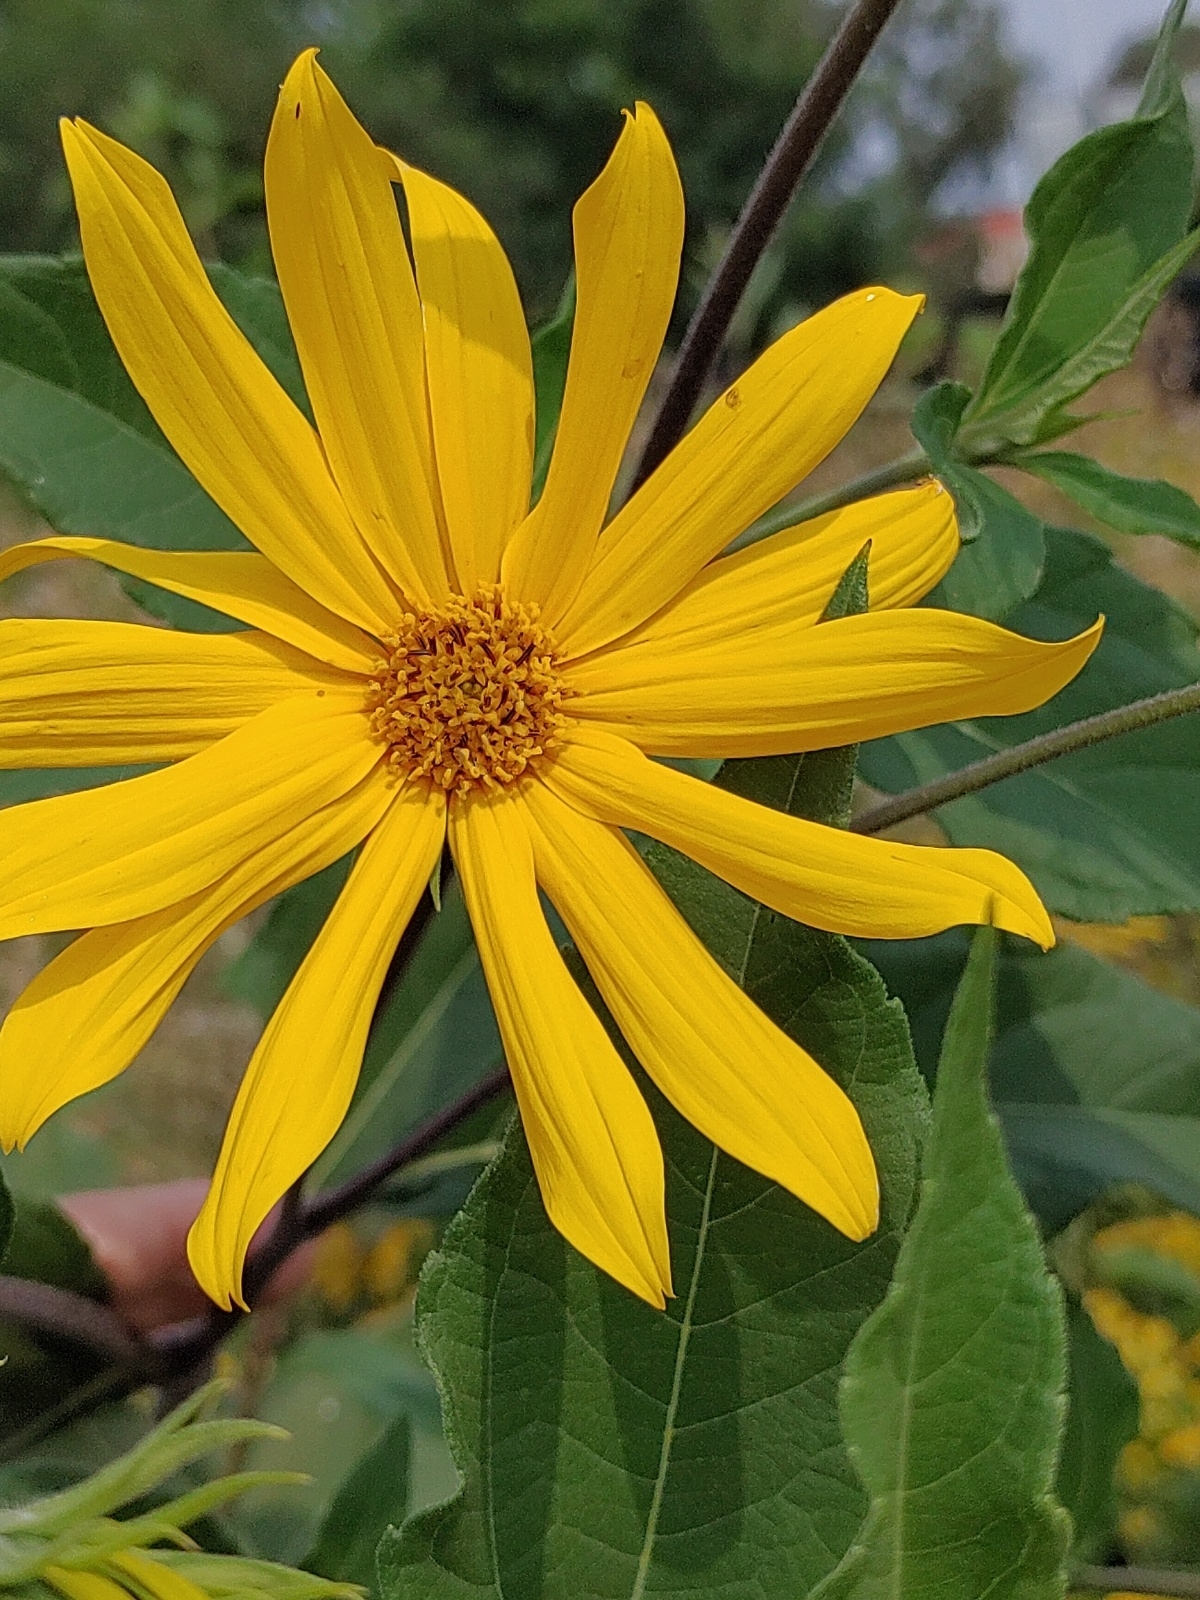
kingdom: Plantae
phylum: Tracheophyta
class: Magnoliopsida
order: Asterales
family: Asteraceae
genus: Helianthus
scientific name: Helianthus tuberosus
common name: Jerusalem artichoke
